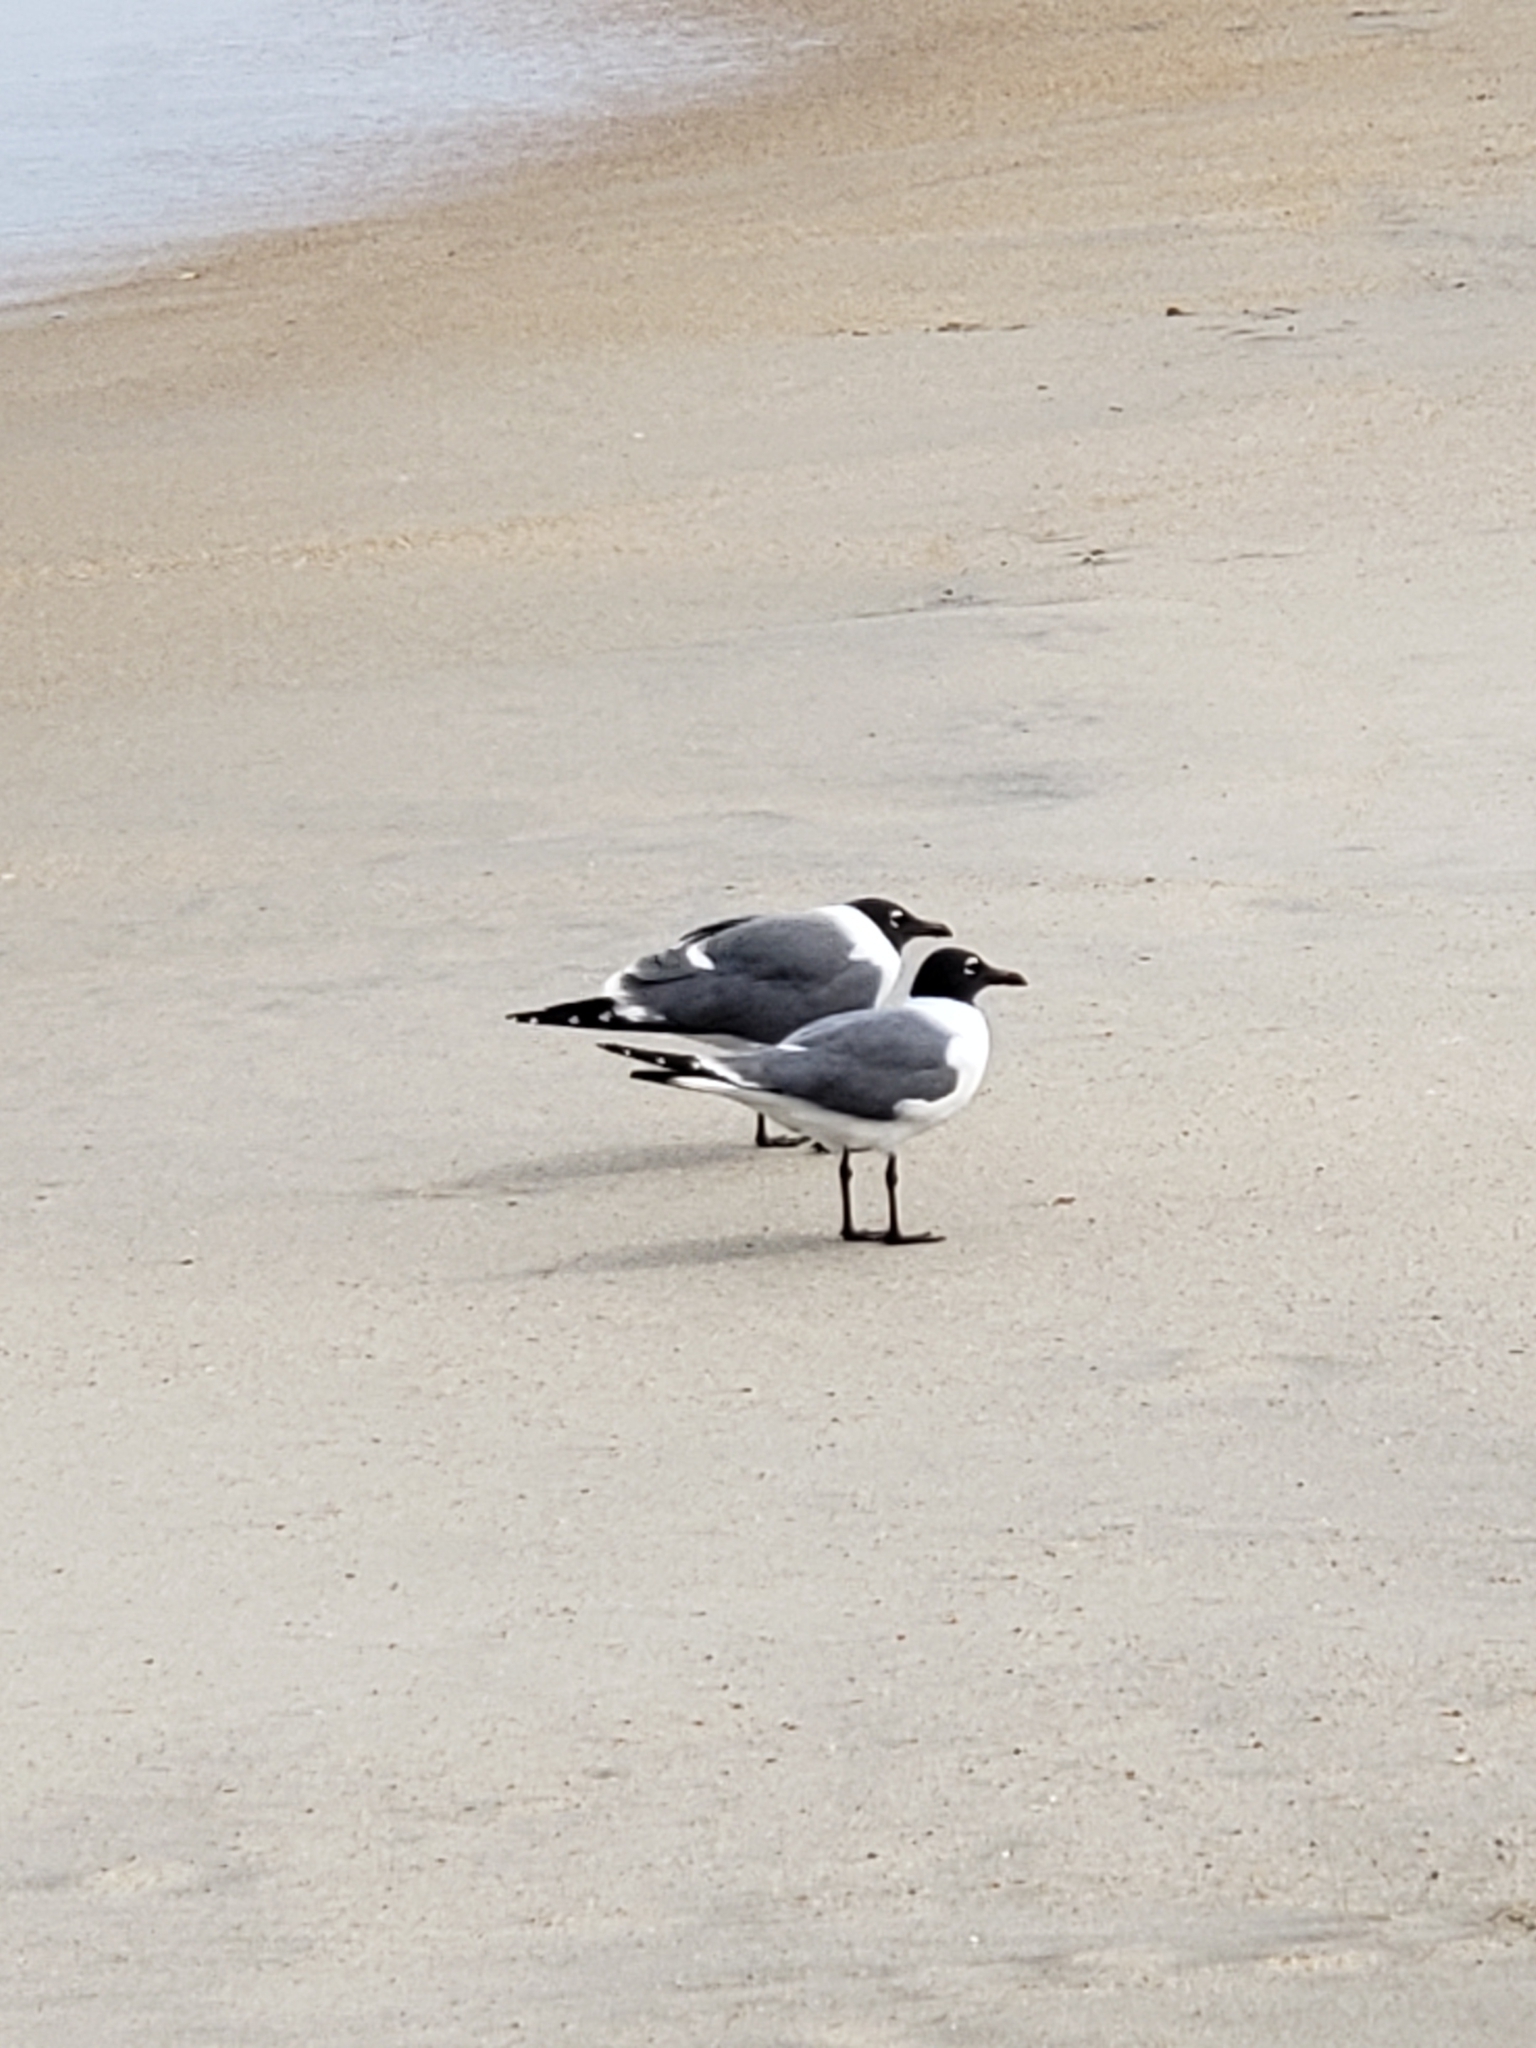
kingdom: Animalia
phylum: Chordata
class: Aves
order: Charadriiformes
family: Laridae
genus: Leucophaeus
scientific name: Leucophaeus atricilla
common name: Laughing gull
